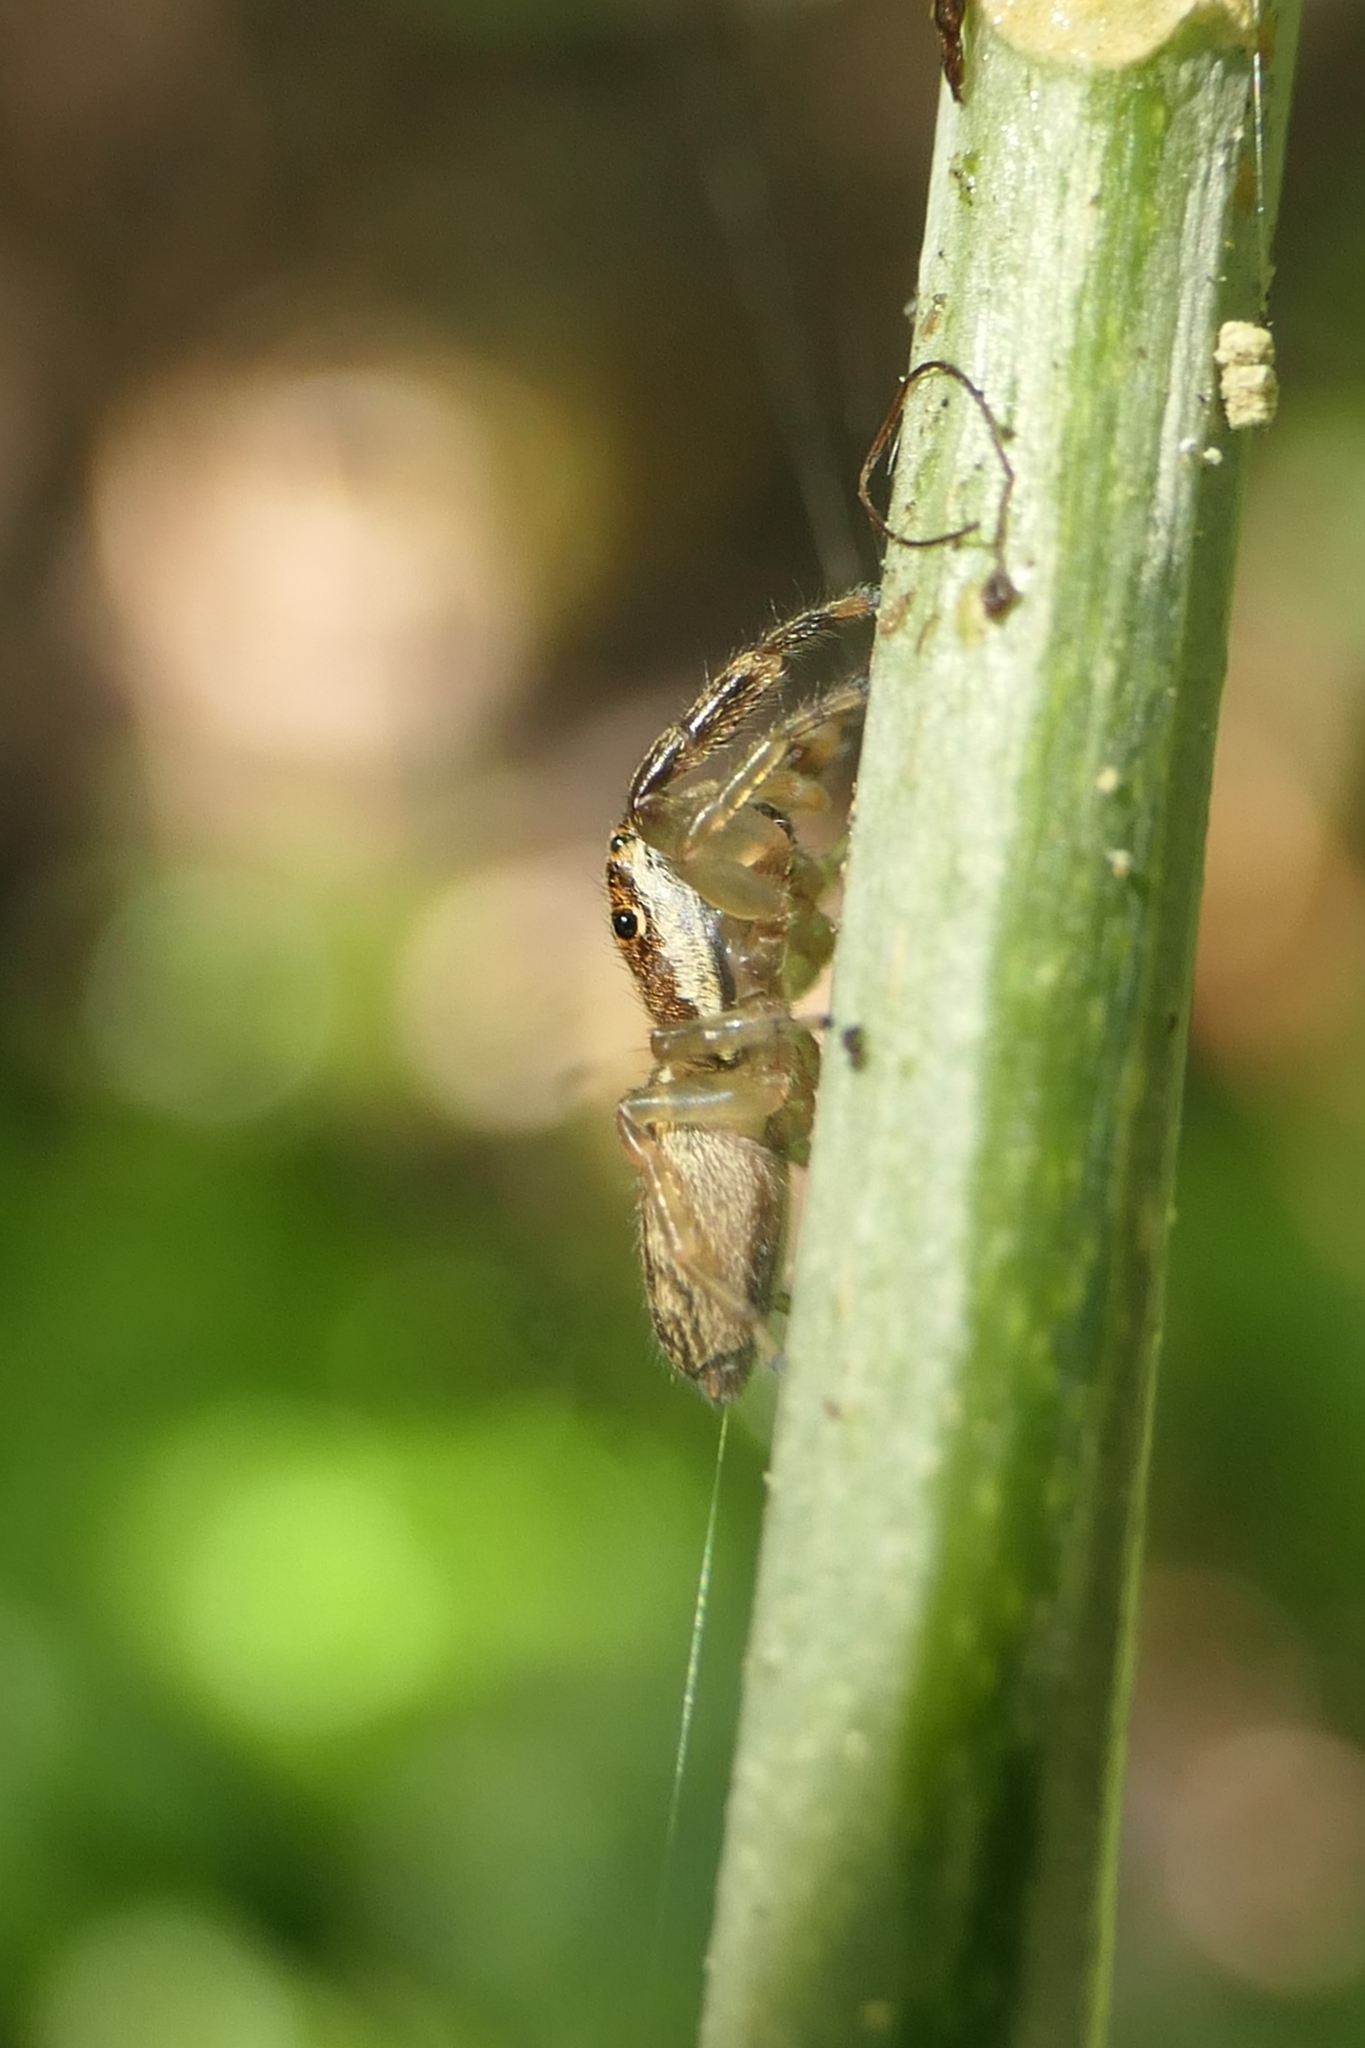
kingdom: Animalia
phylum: Arthropoda
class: Arachnida
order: Araneae
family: Salticidae
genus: Trite
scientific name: Trite mustilina
